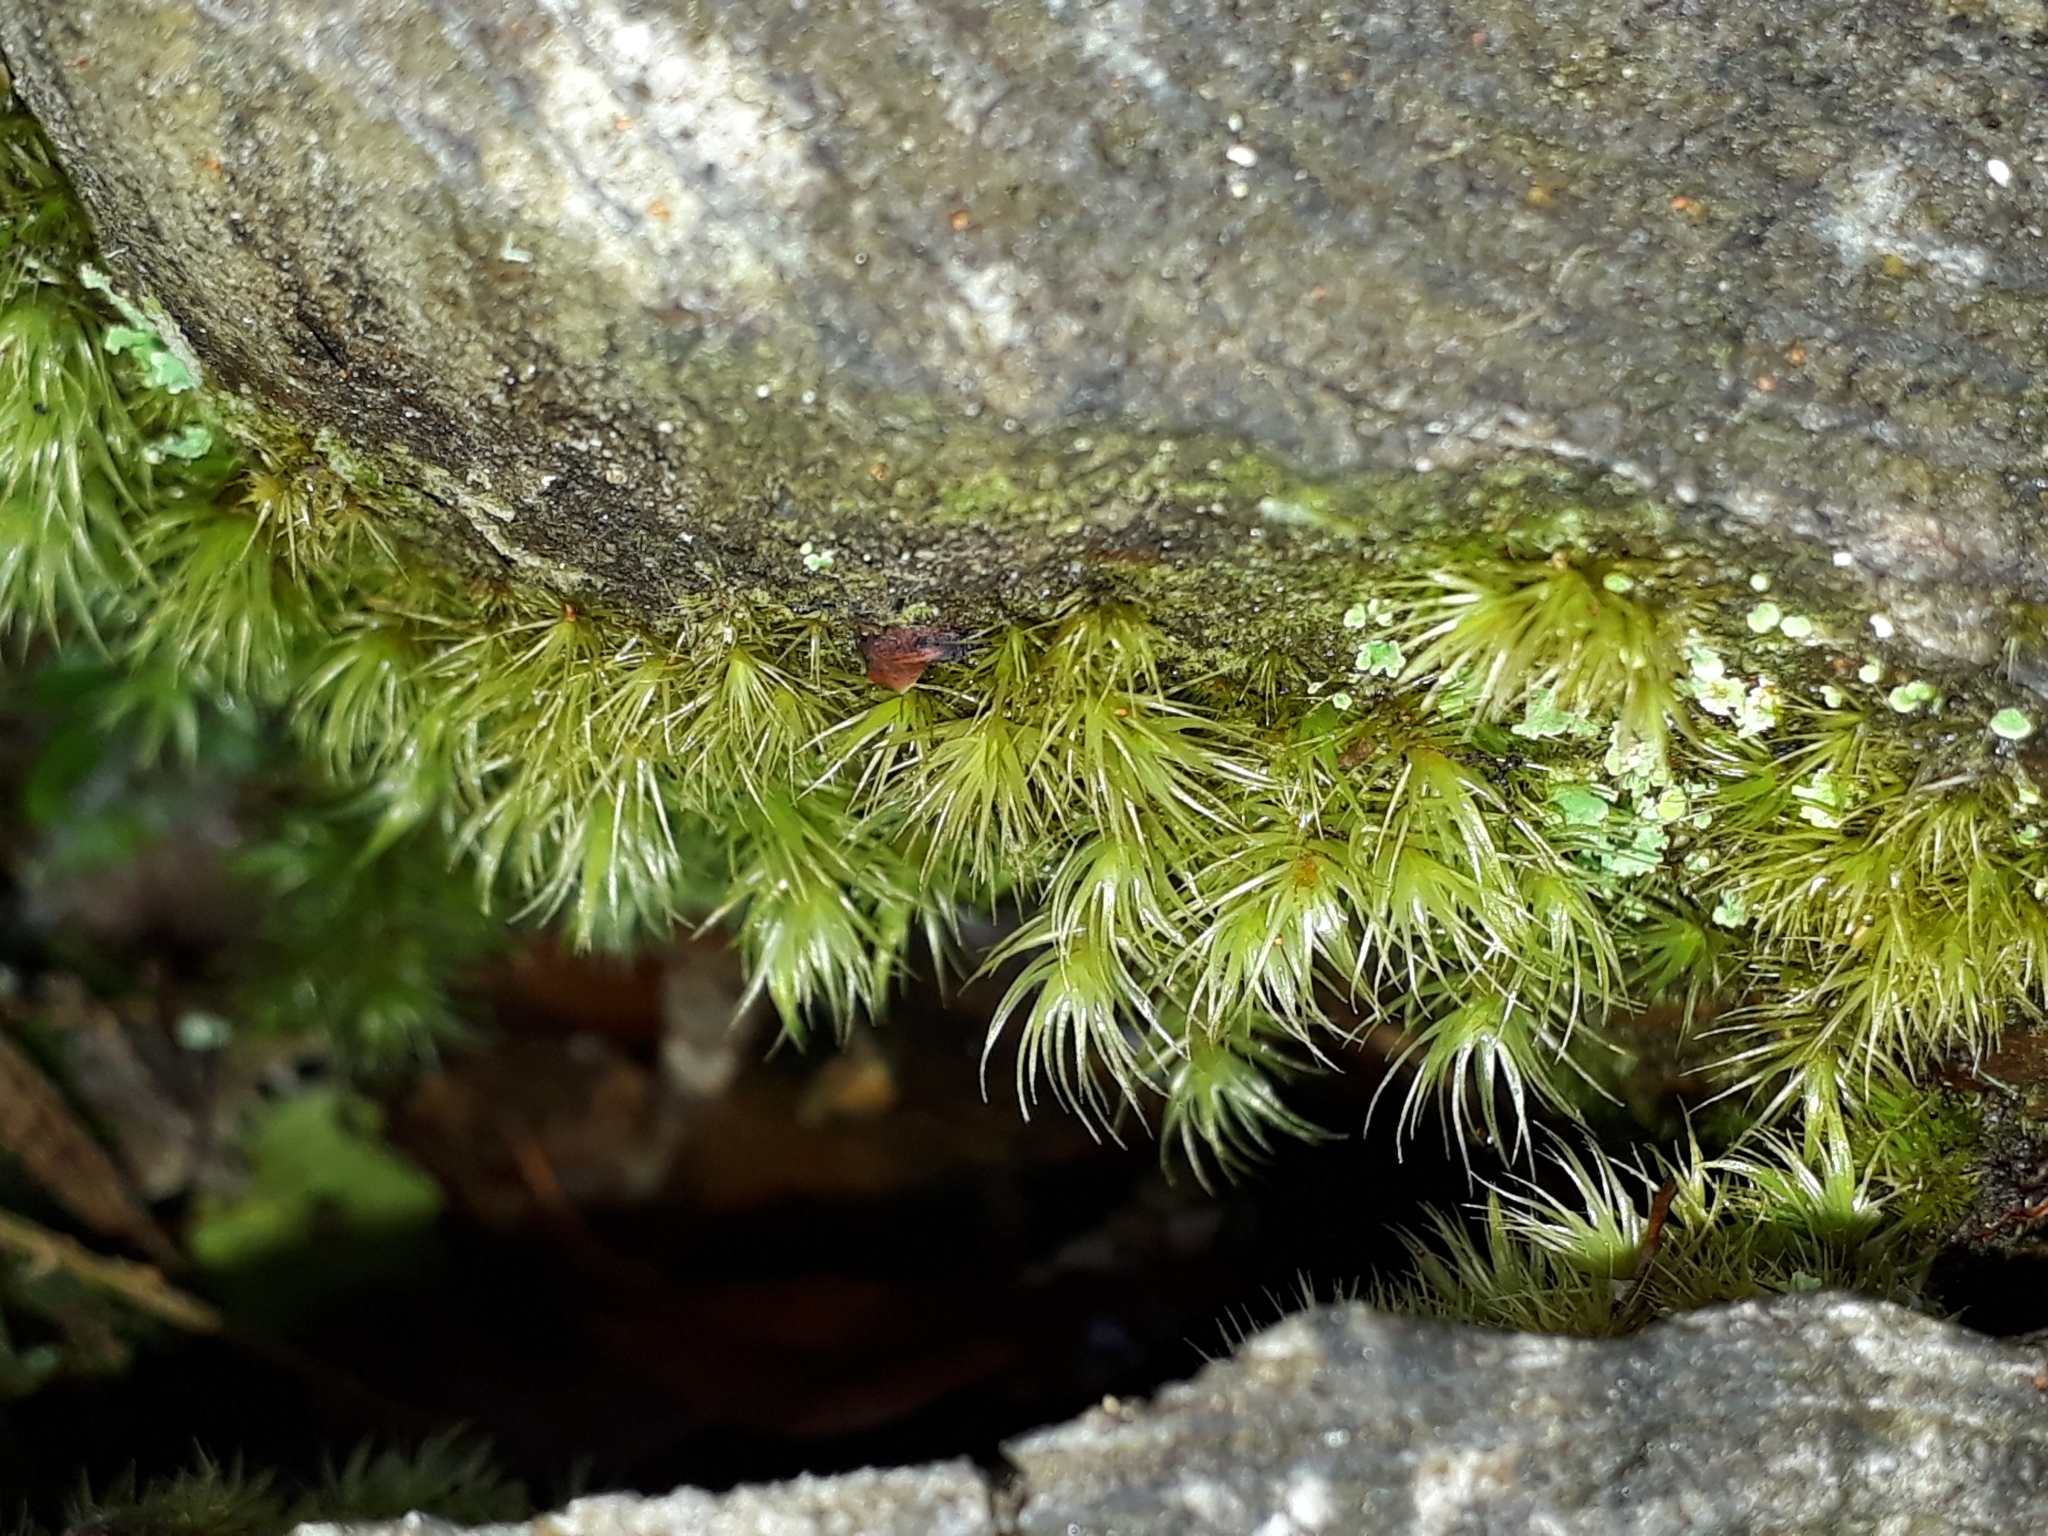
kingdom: Plantae
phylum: Bryophyta
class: Bryopsida
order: Dicranales
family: Dicranaceae
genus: Dicranoloma
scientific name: Dicranoloma billardieri
